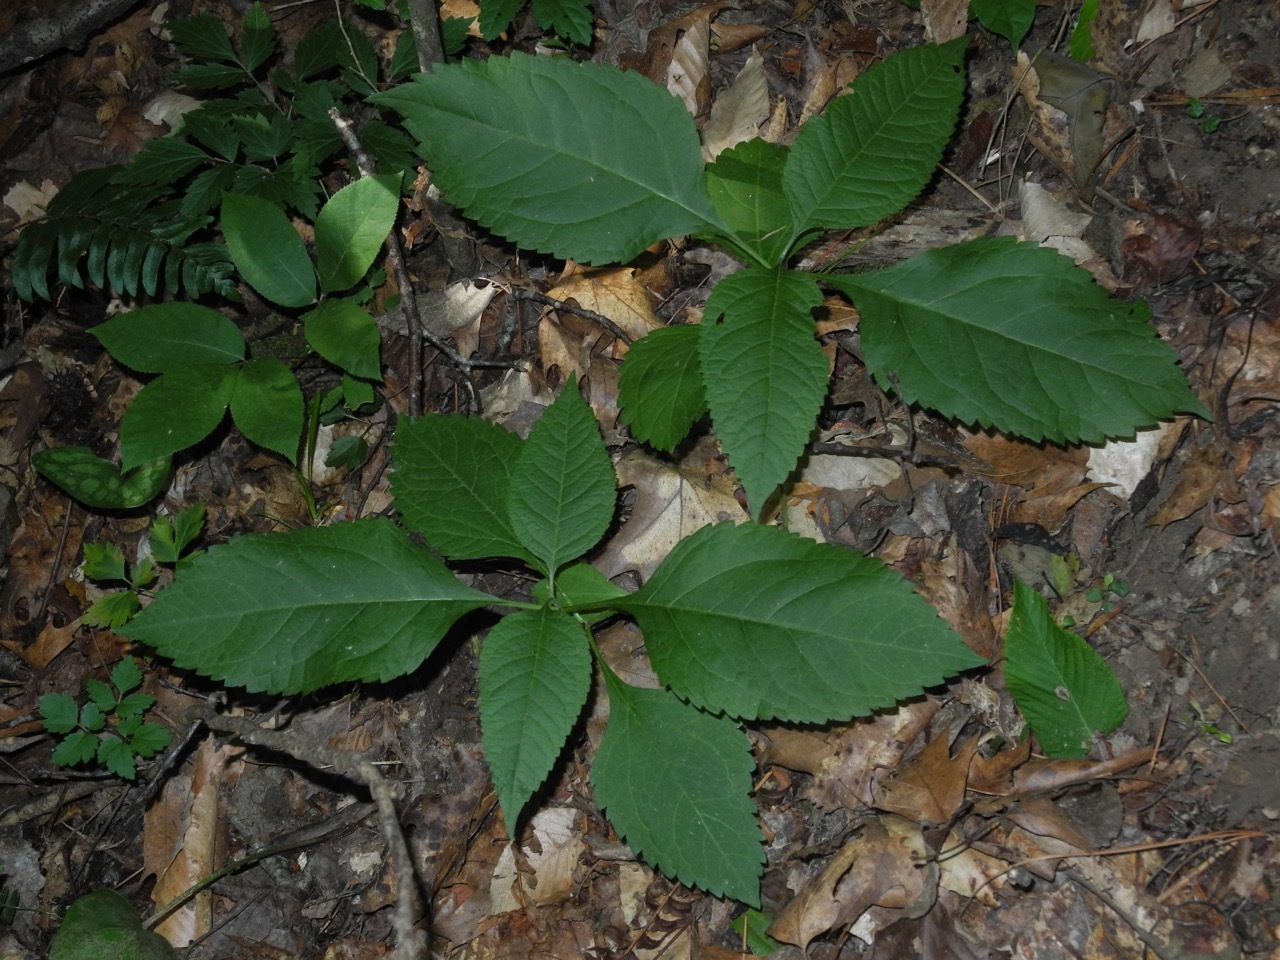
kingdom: Plantae
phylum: Tracheophyta
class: Magnoliopsida
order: Lamiales
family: Lamiaceae
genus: Collinsonia
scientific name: Collinsonia canadensis
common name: Northern horsebalm
